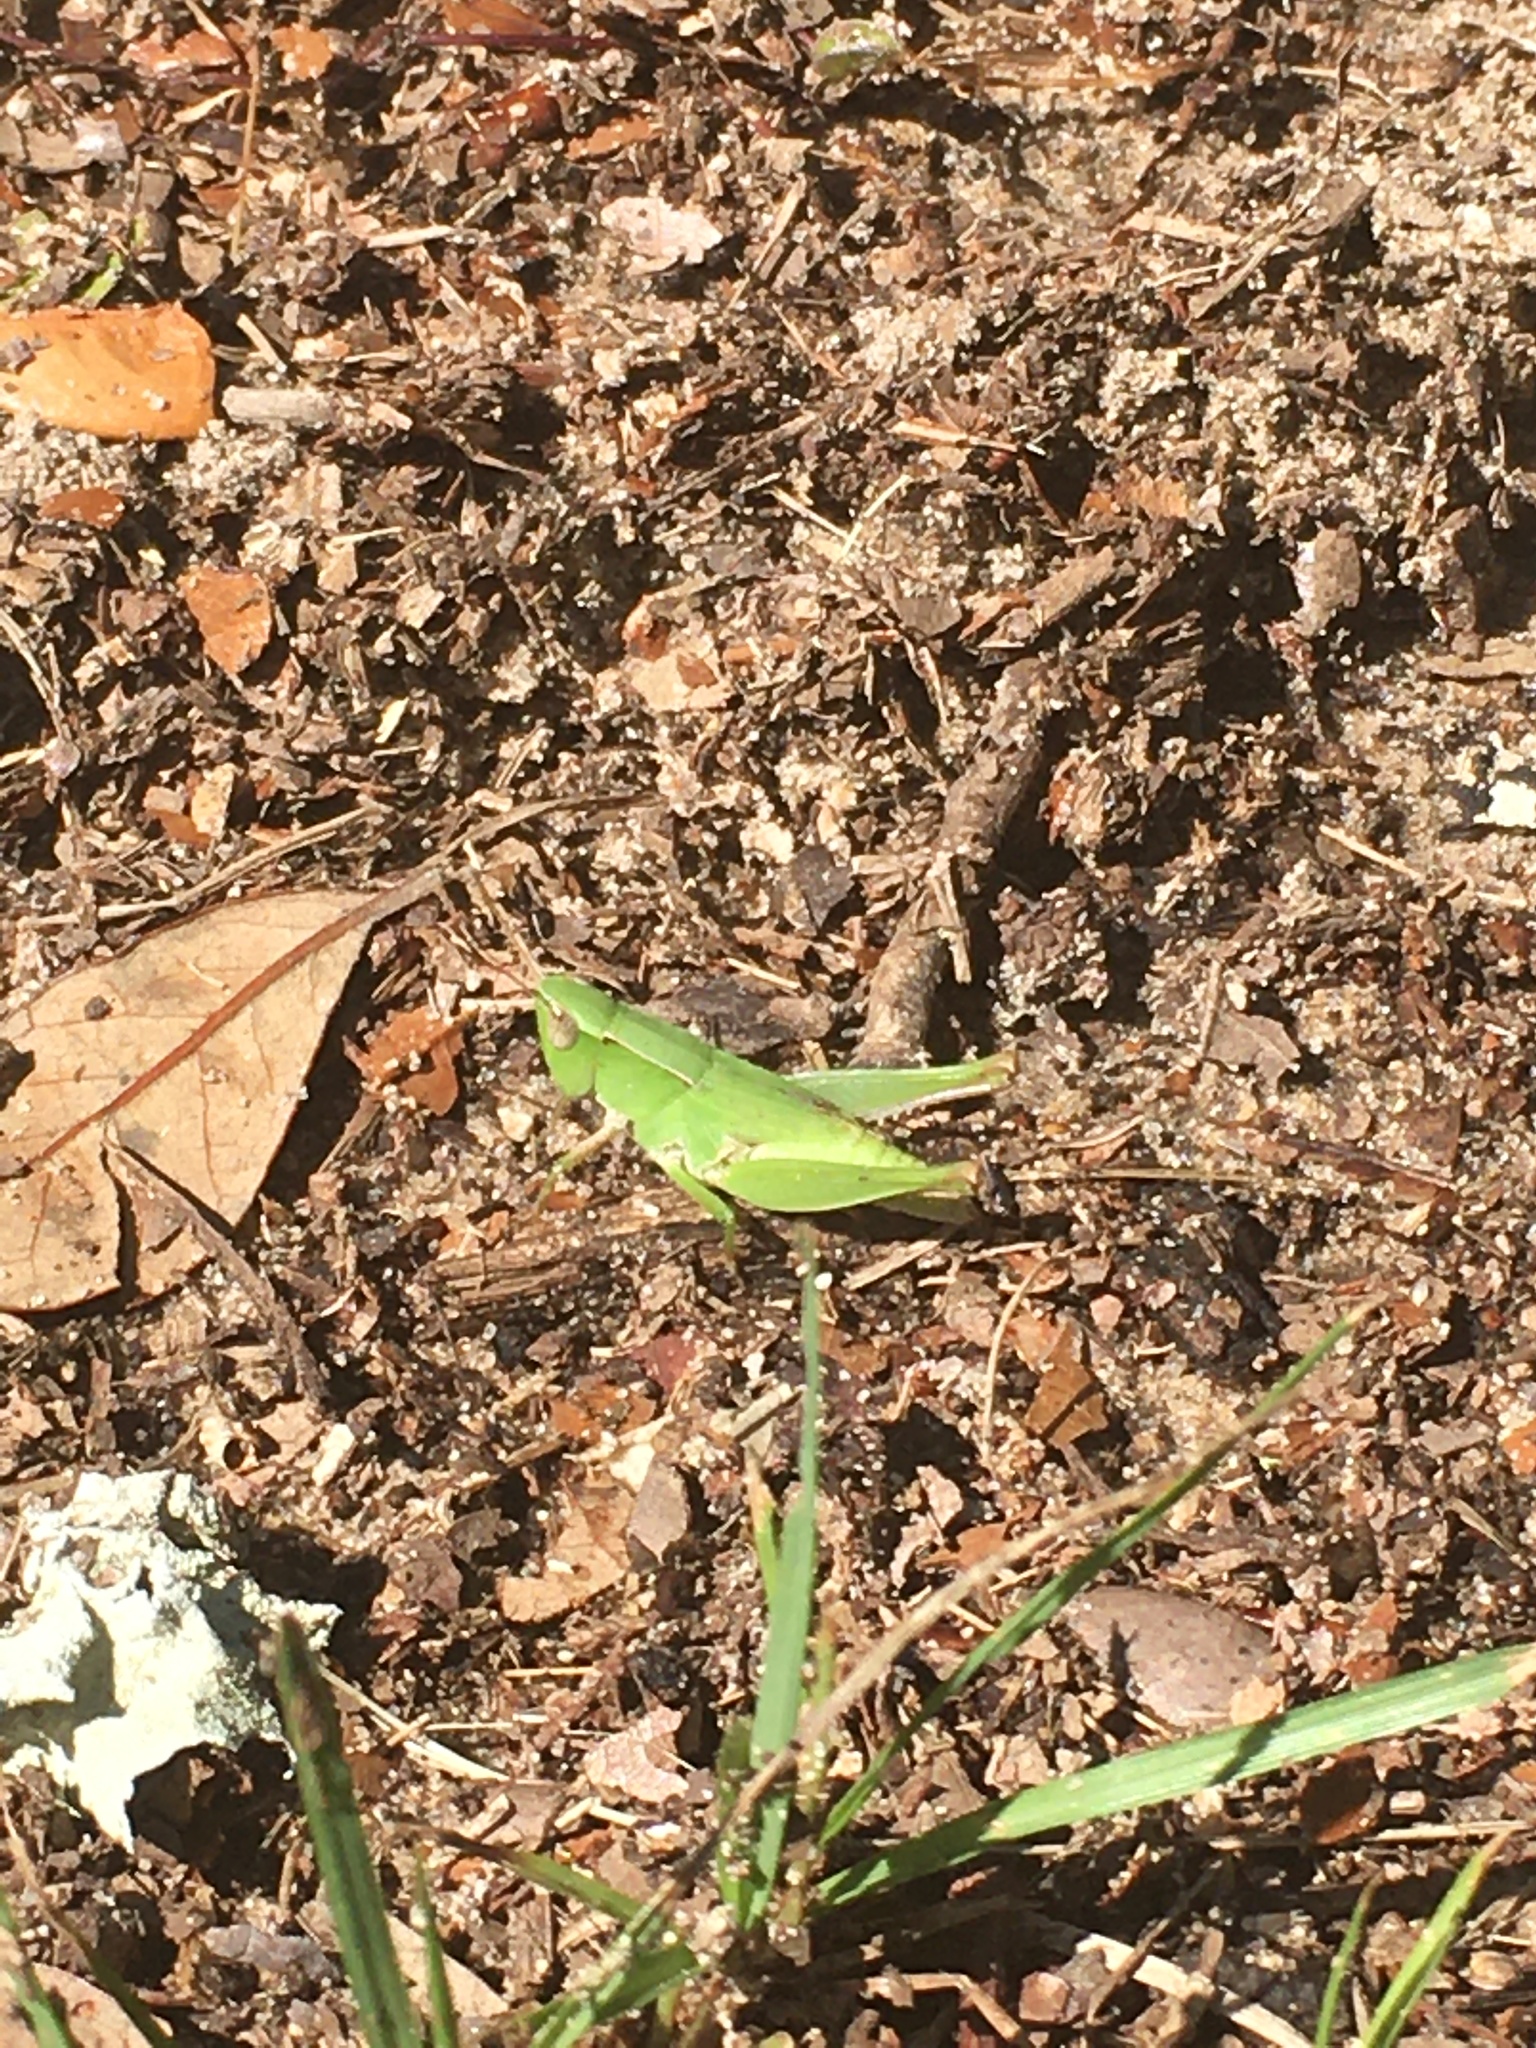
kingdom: Animalia
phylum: Arthropoda
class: Insecta
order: Orthoptera
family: Acrididae
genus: Dichromorpha
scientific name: Dichromorpha viridis
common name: Short-winged green grasshopper
